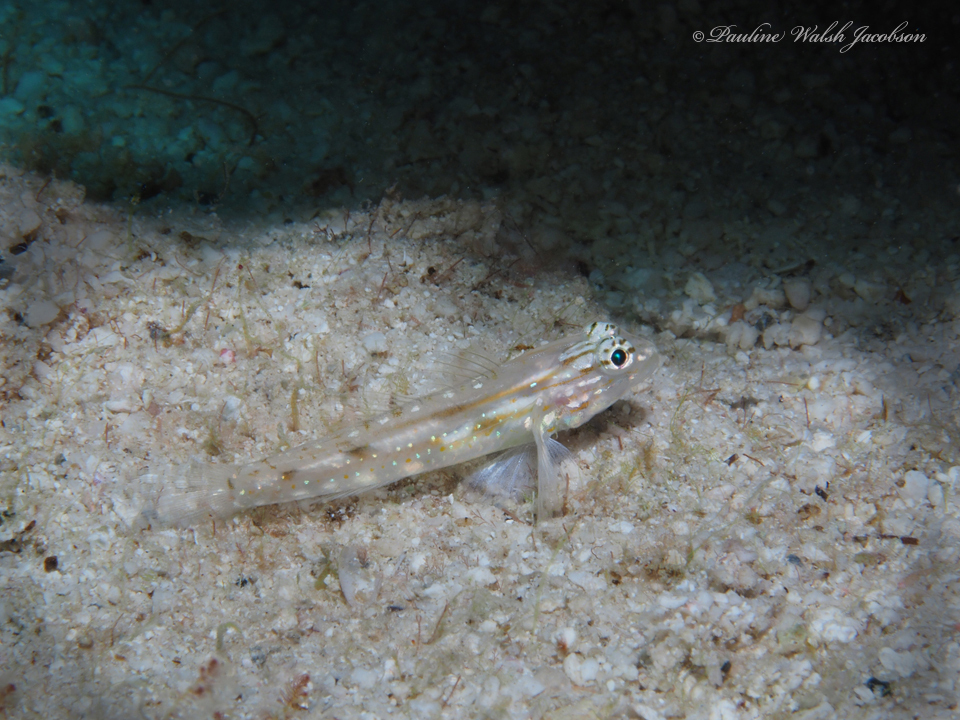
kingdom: Animalia
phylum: Chordata
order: Perciformes
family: Gobiidae
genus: Coryphopterus
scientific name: Coryphopterus venezuelae
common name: Sand-canyon goby
